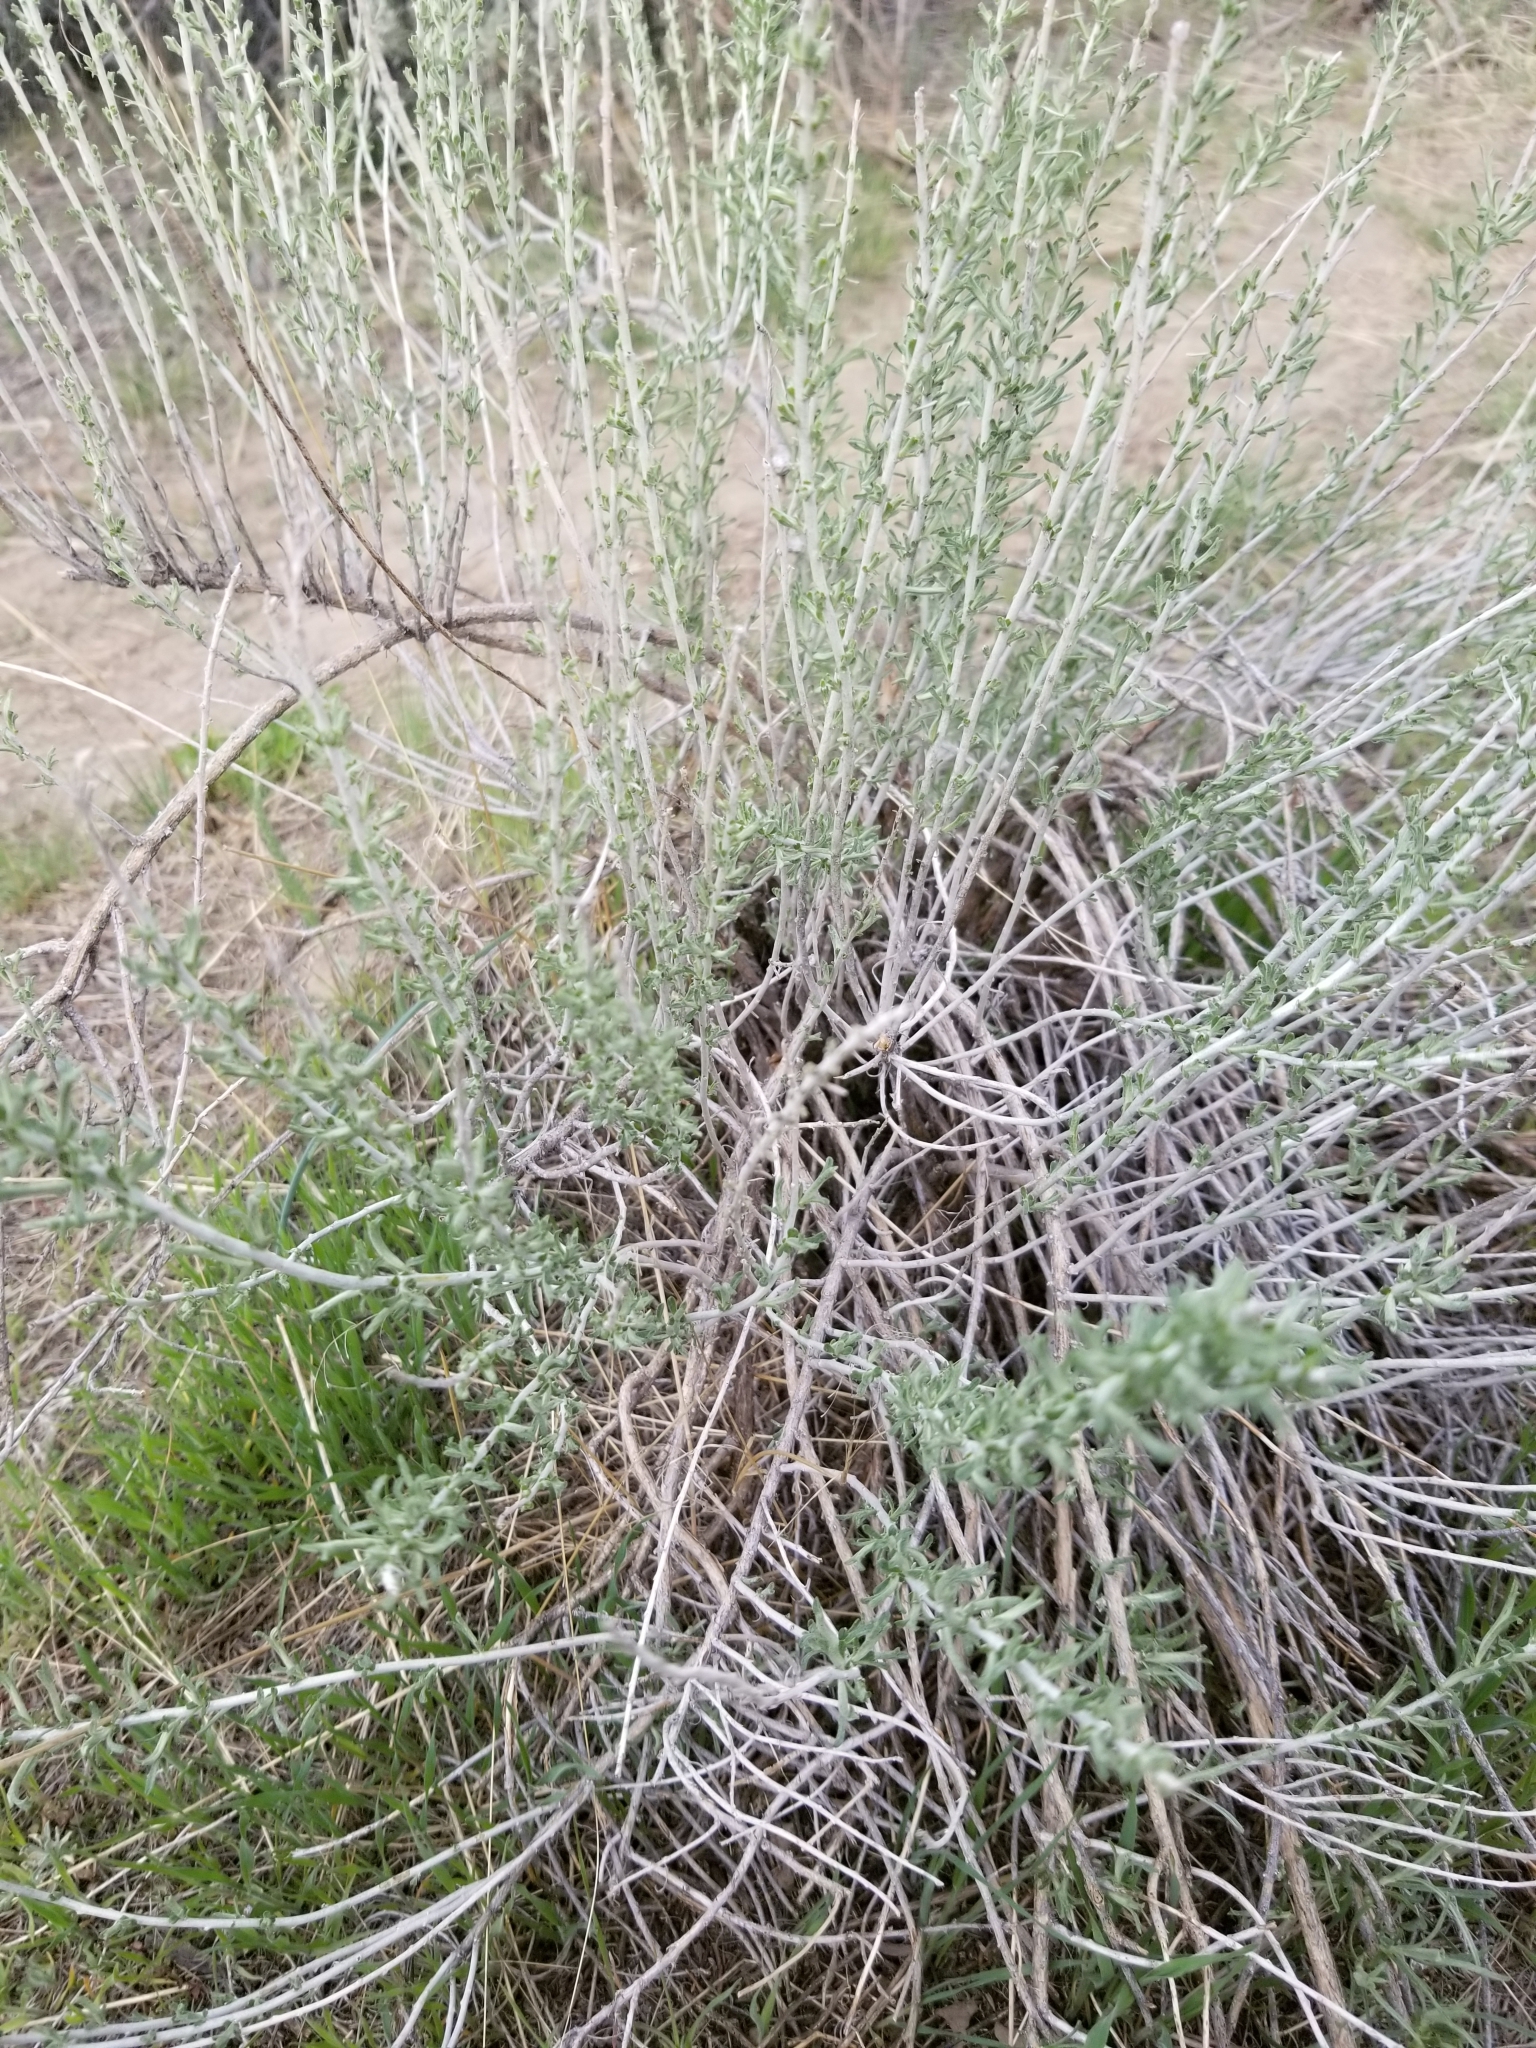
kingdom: Plantae
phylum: Tracheophyta
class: Magnoliopsida
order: Asterales
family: Asteraceae
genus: Ericameria
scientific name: Ericameria nauseosa
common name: Rubber rabbitbrush
